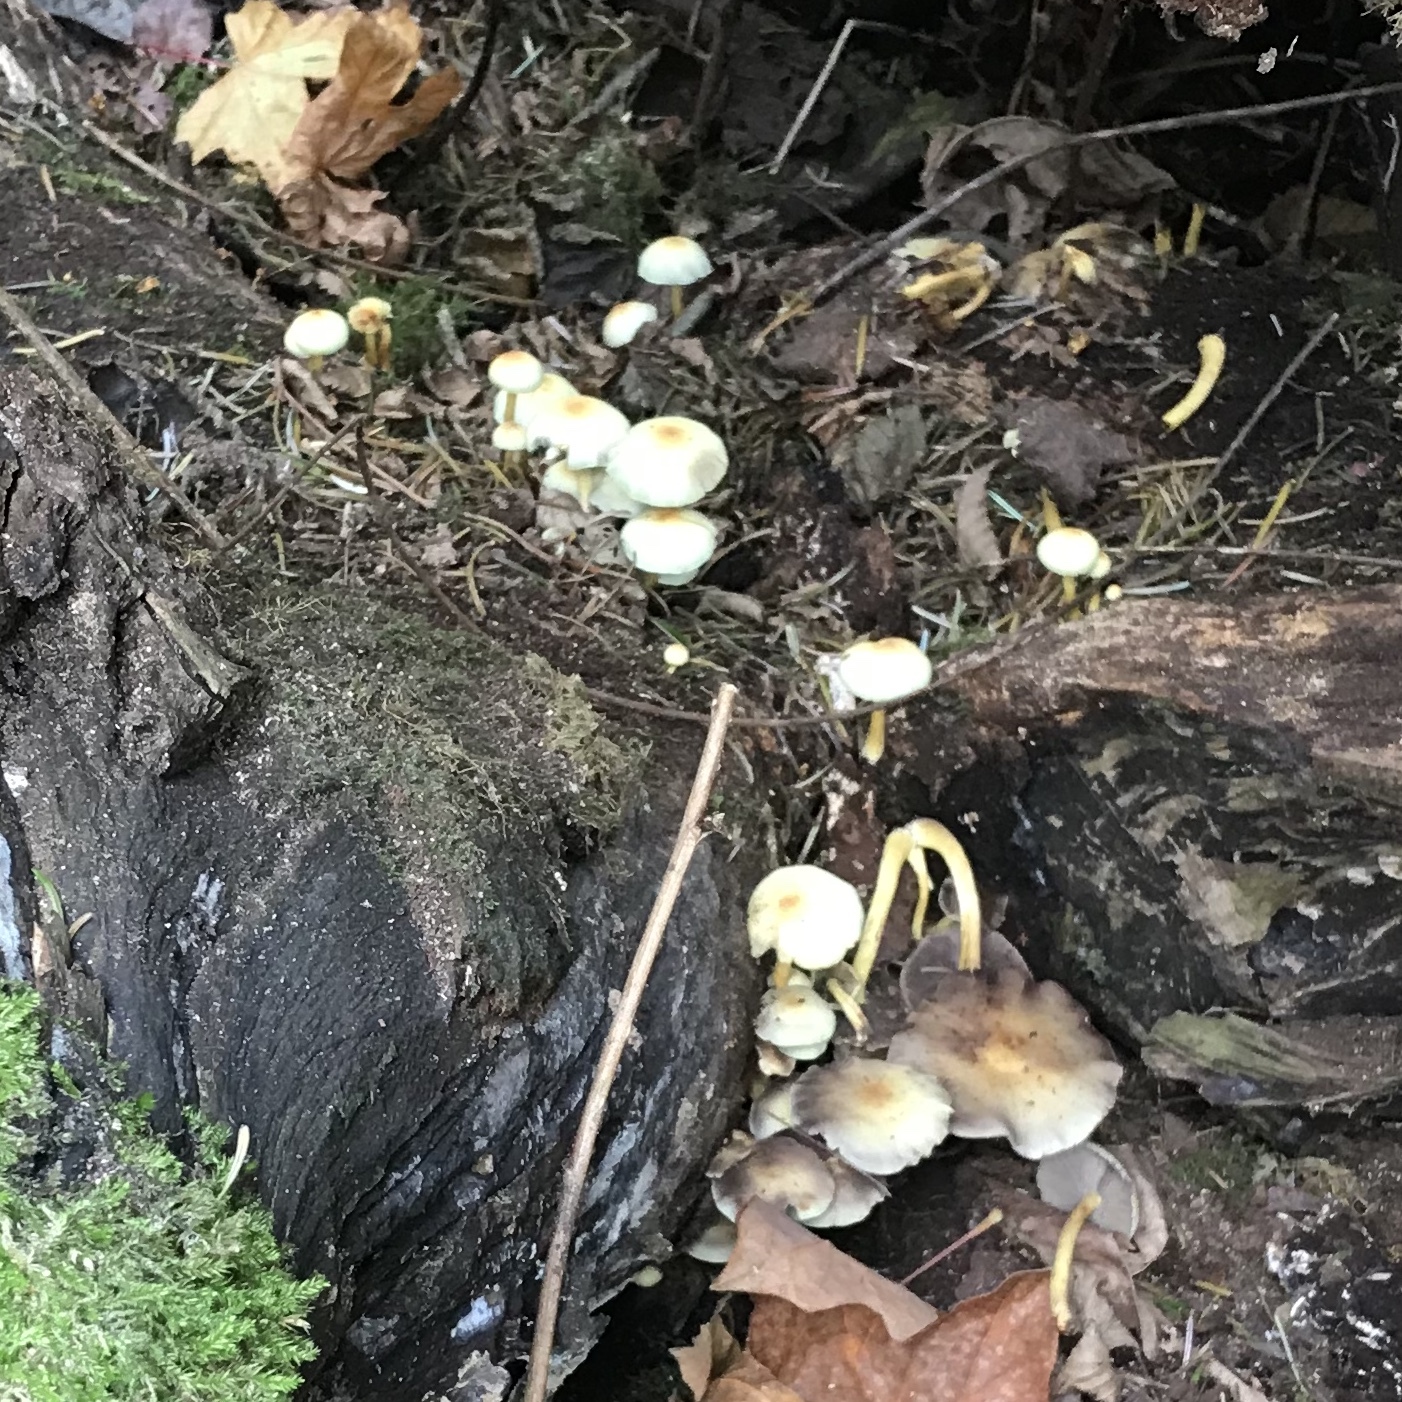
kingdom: Fungi
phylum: Basidiomycota
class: Agaricomycetes
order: Agaricales
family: Strophariaceae
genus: Hypholoma
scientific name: Hypholoma fasciculare
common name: Sulphur tuft
